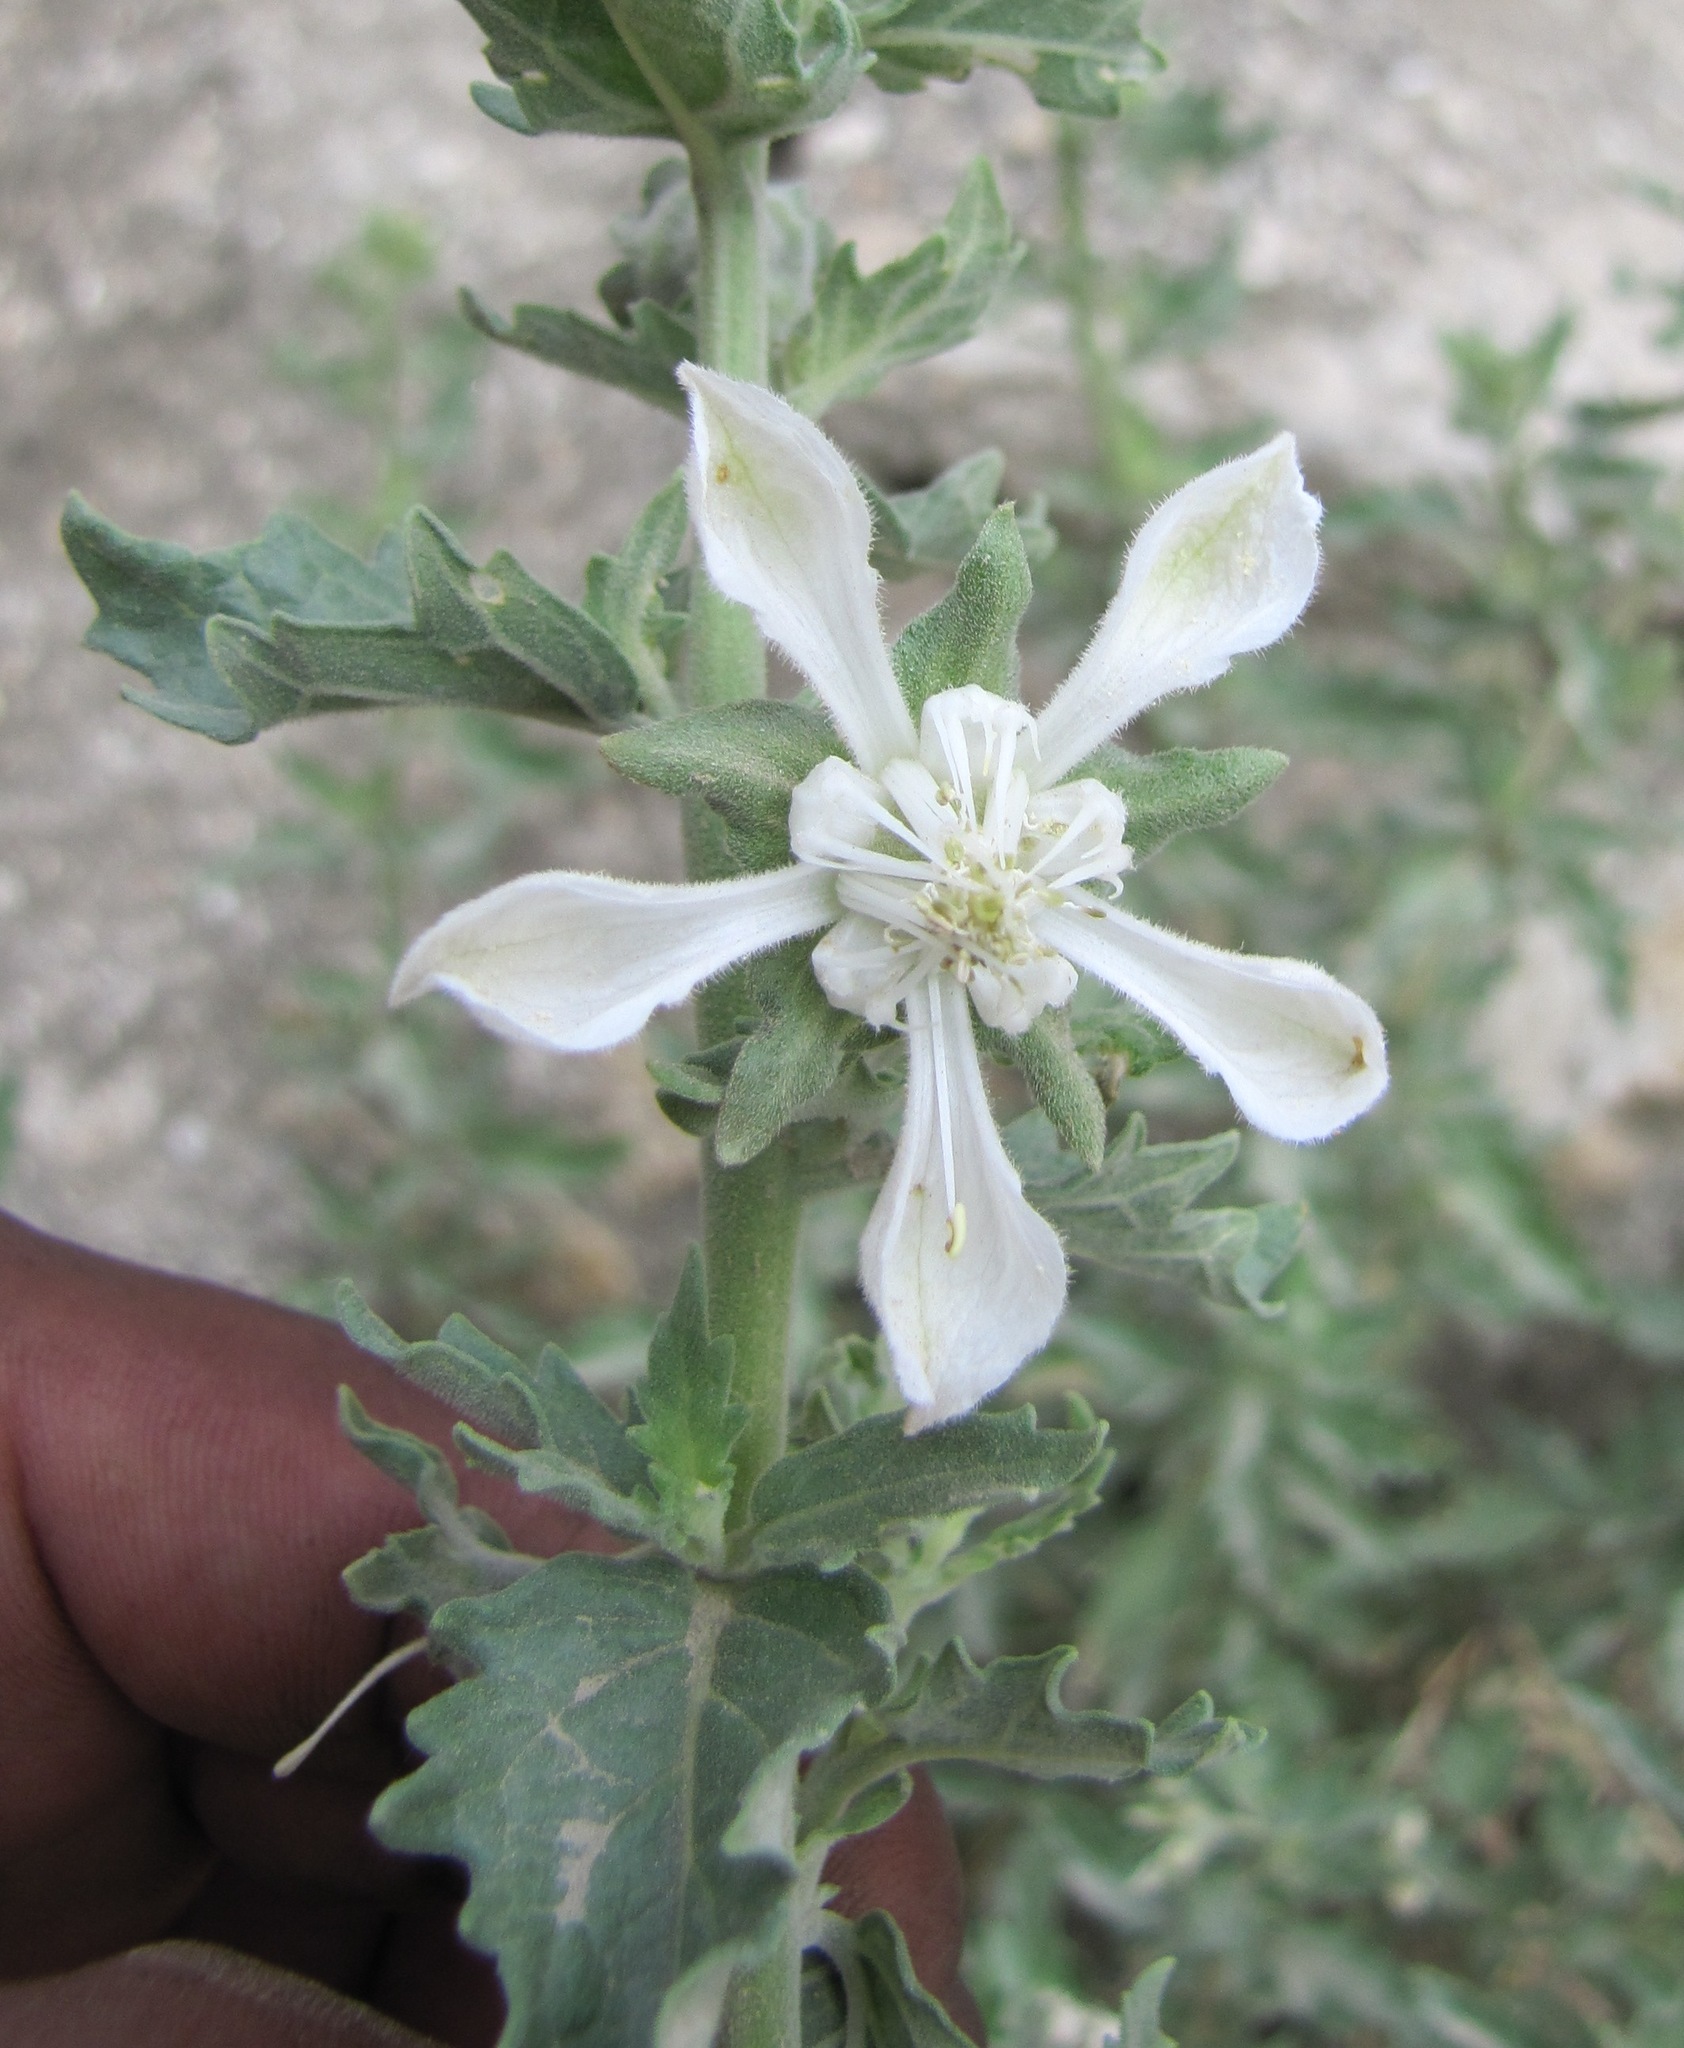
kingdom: Plantae
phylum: Tracheophyta
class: Magnoliopsida
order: Cornales
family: Loasaceae
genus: Presliophytum
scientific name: Presliophytum incanum
